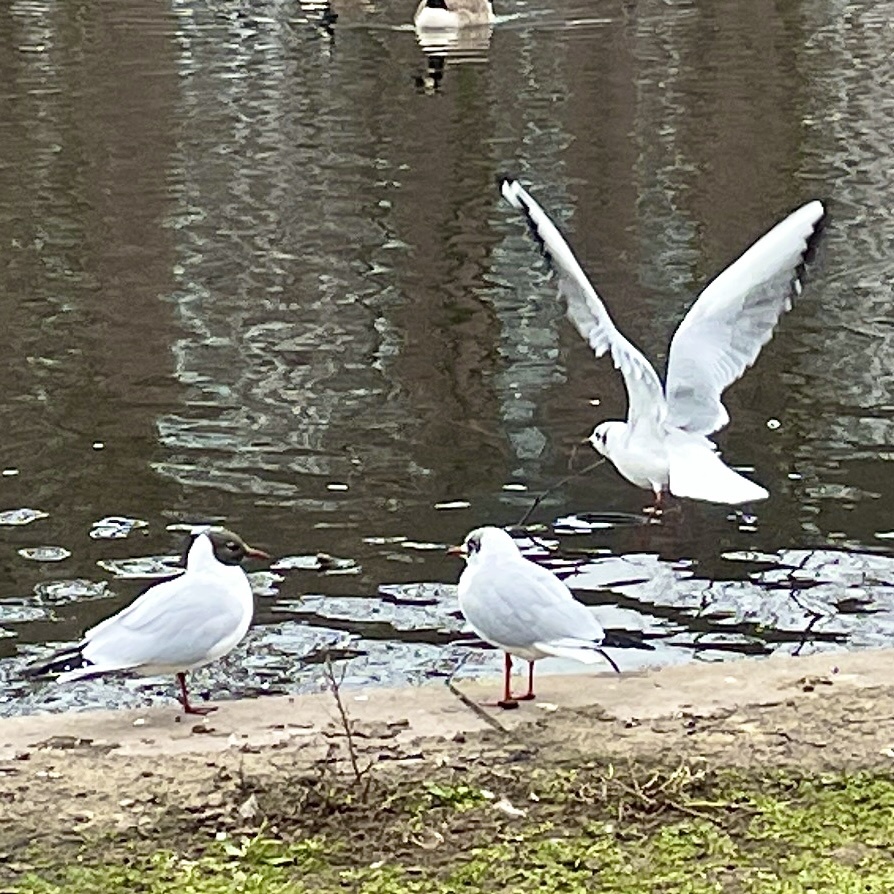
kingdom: Animalia
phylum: Chordata
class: Aves
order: Charadriiformes
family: Laridae
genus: Chroicocephalus
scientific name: Chroicocephalus ridibundus
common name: Black-headed gull
